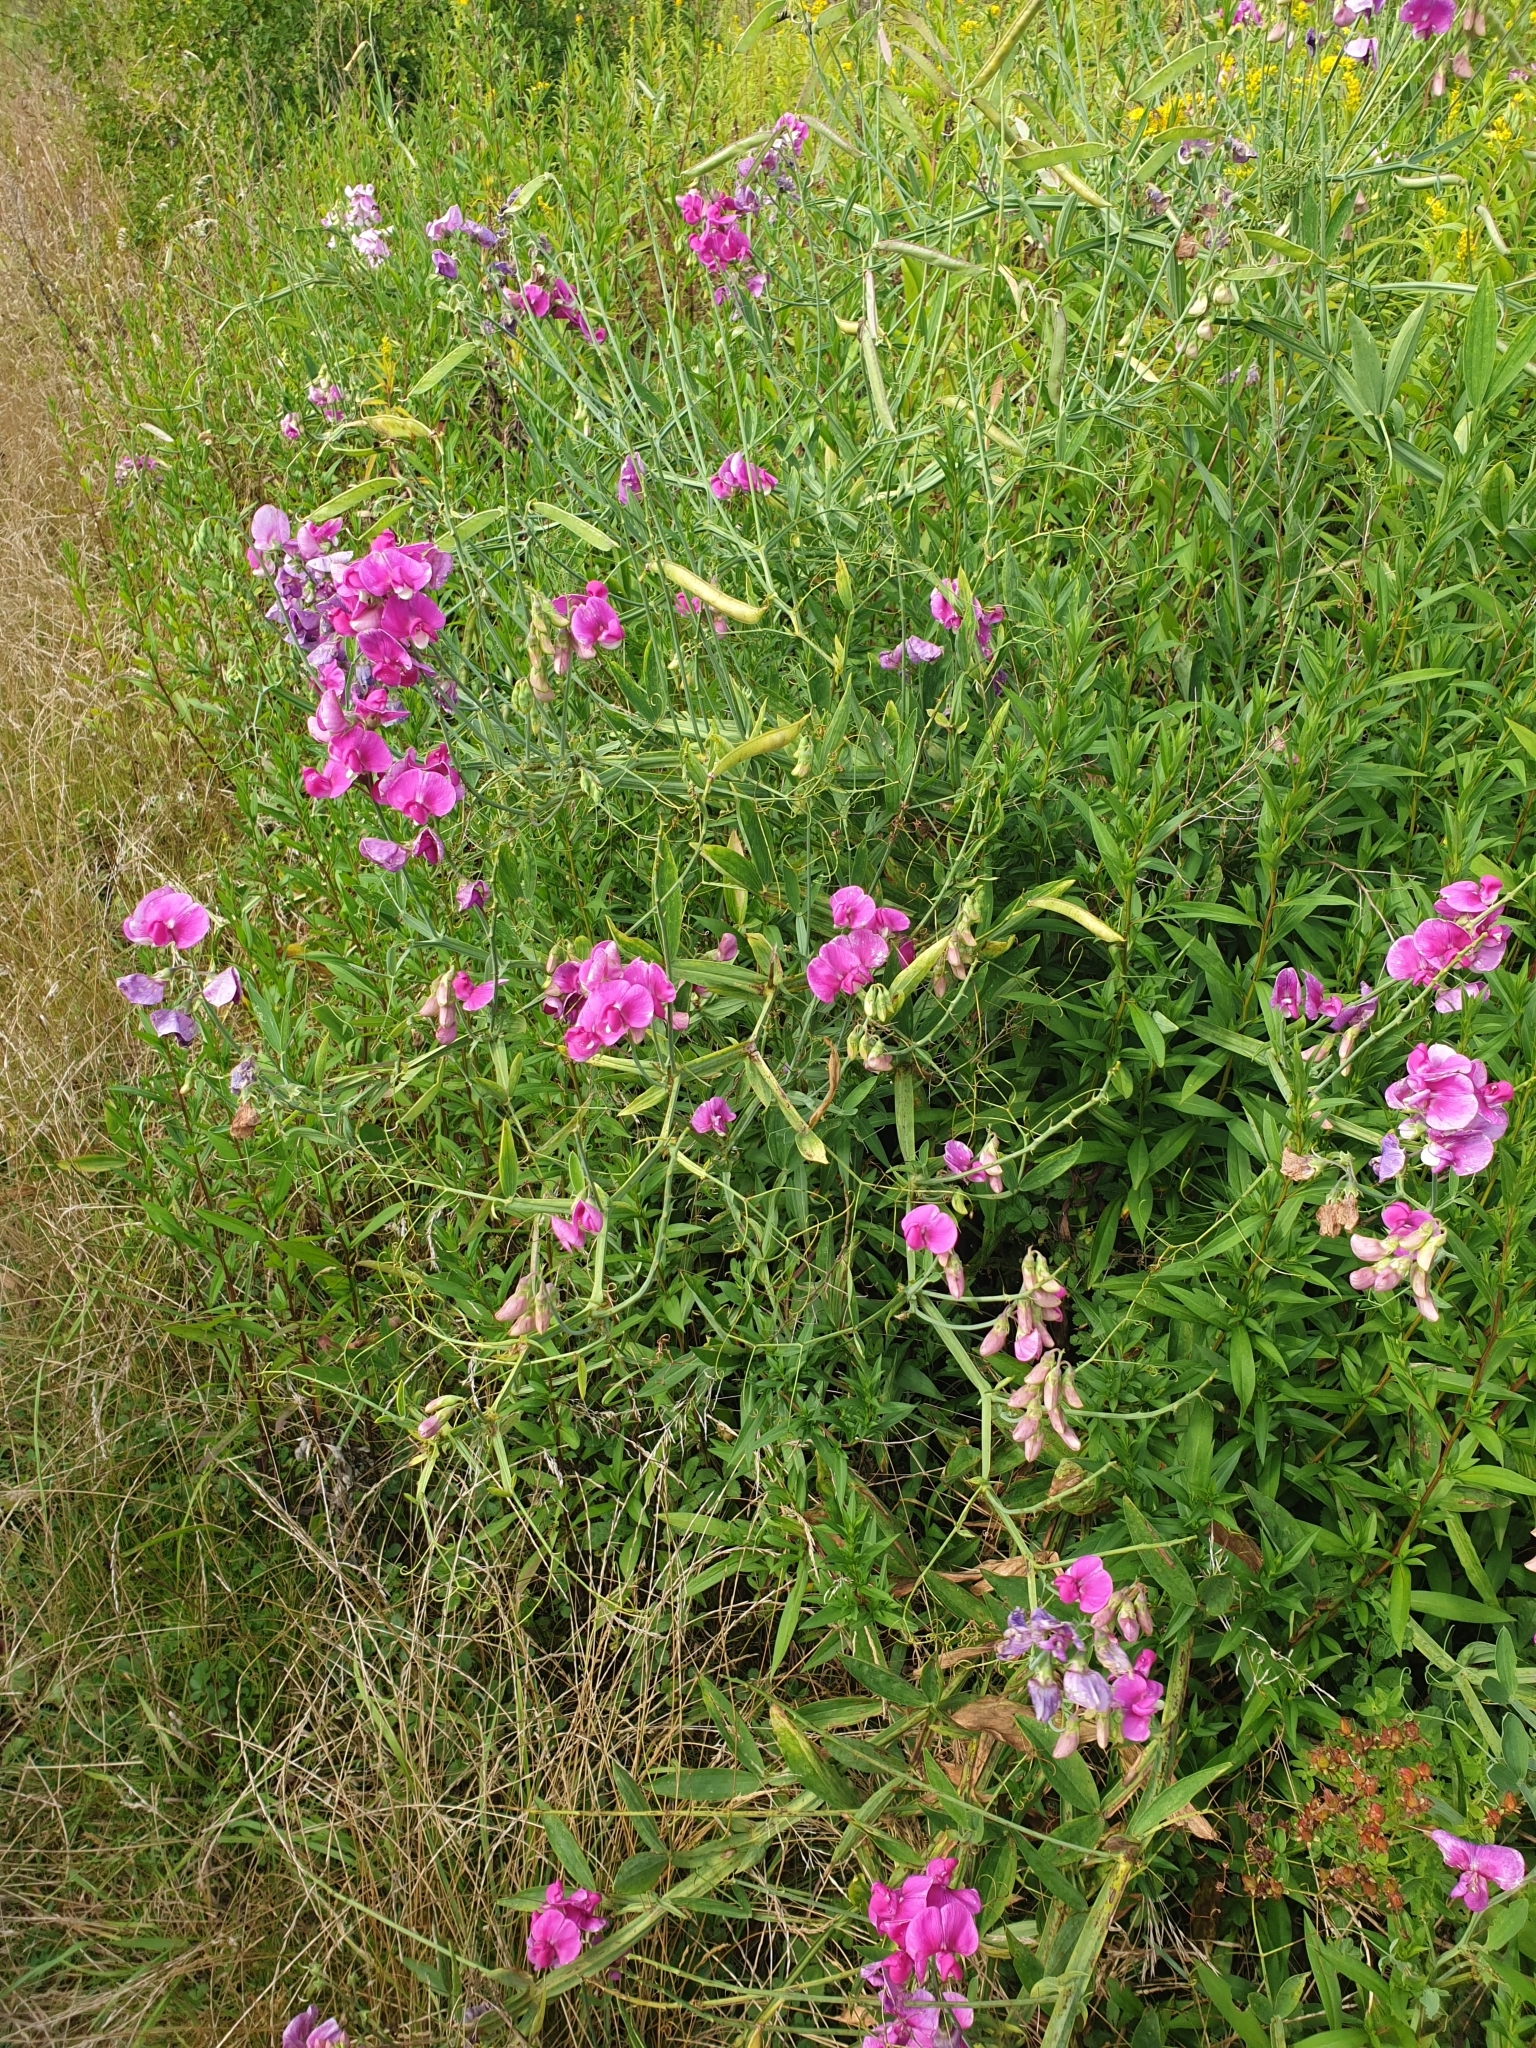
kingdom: Plantae
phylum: Tracheophyta
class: Magnoliopsida
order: Fabales
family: Fabaceae
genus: Lathyrus
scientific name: Lathyrus latifolius
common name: Perennial pea
